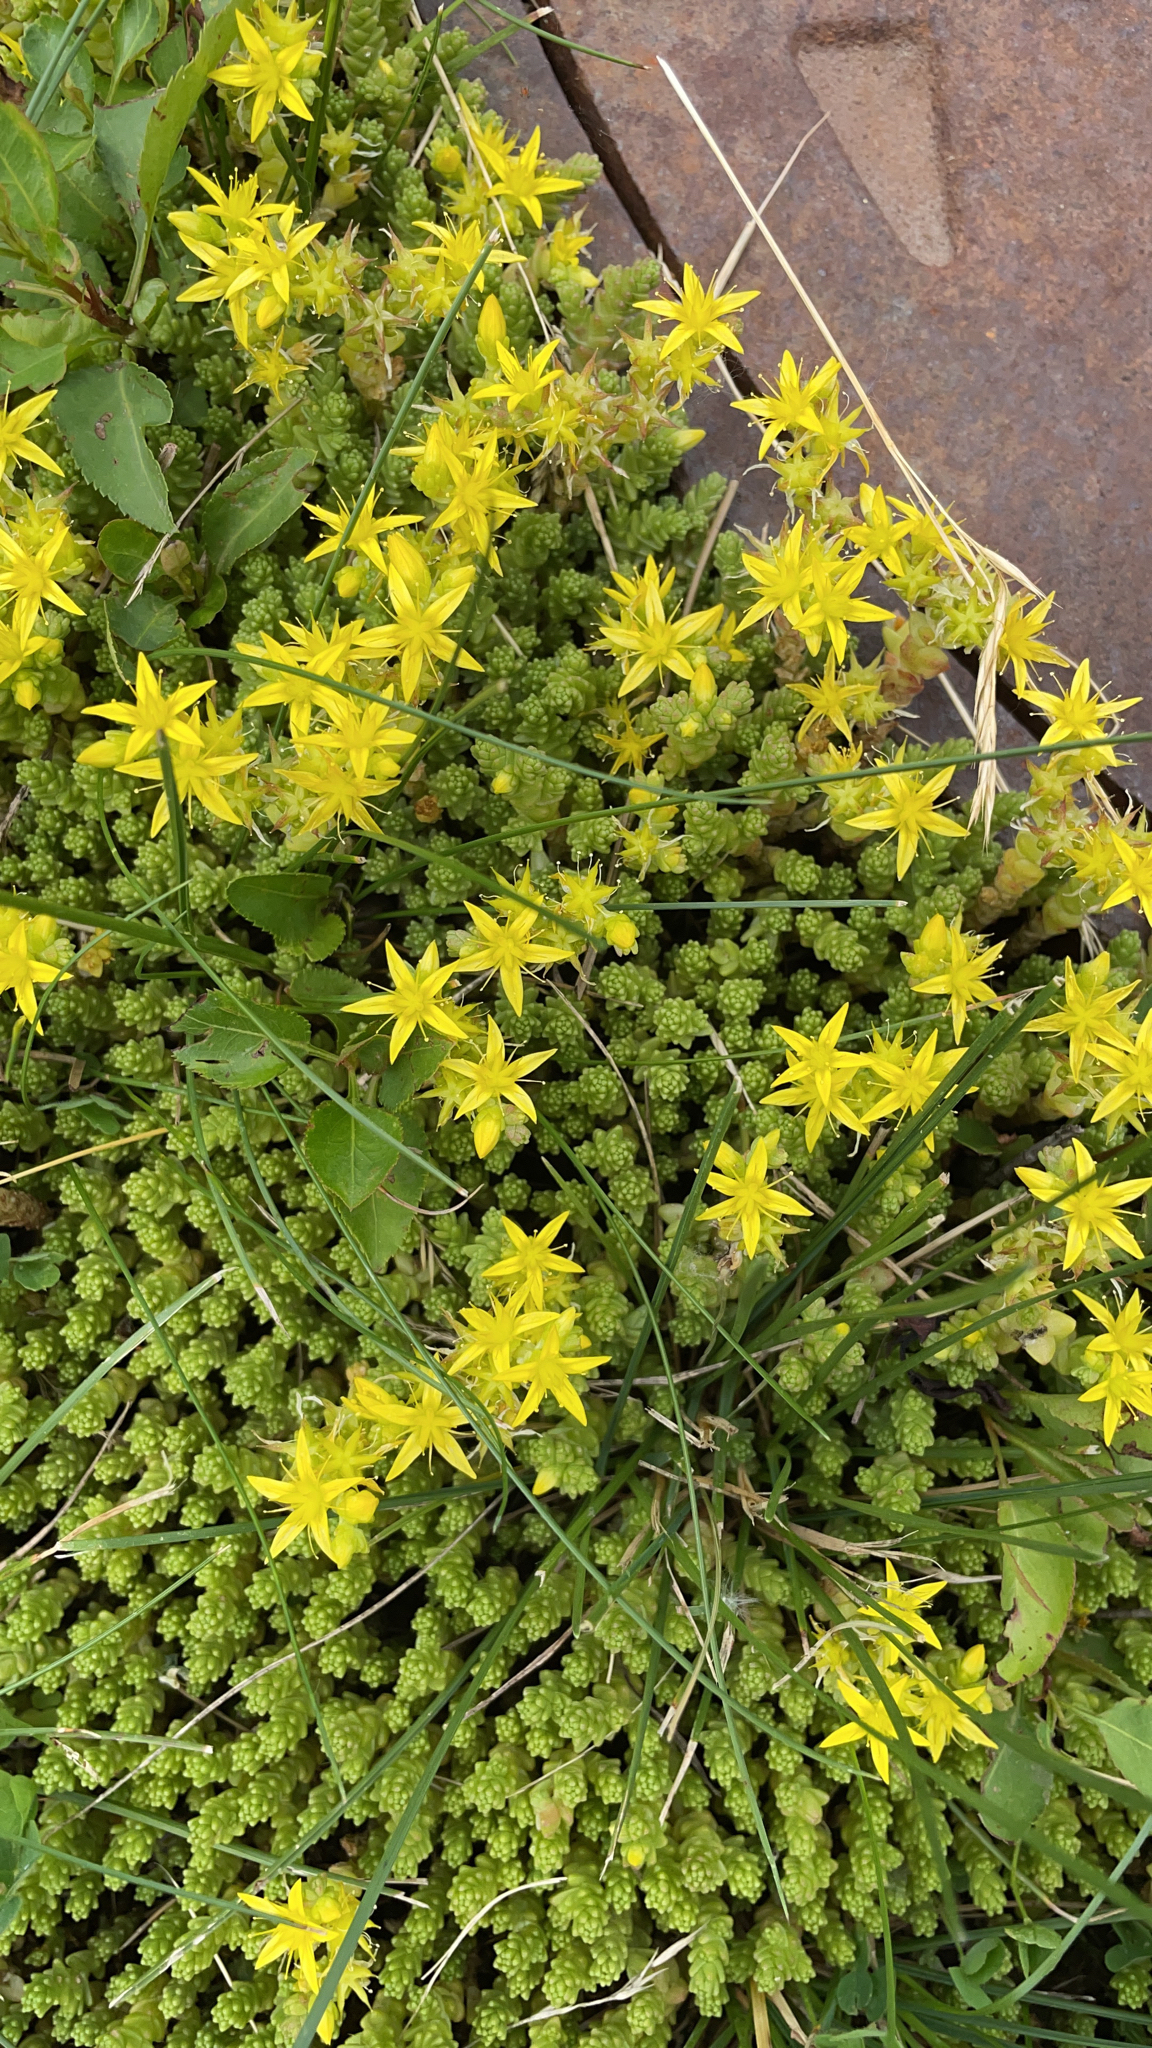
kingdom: Plantae
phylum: Tracheophyta
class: Magnoliopsida
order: Saxifragales
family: Crassulaceae
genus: Sedum
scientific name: Sedum acre
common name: Biting stonecrop
